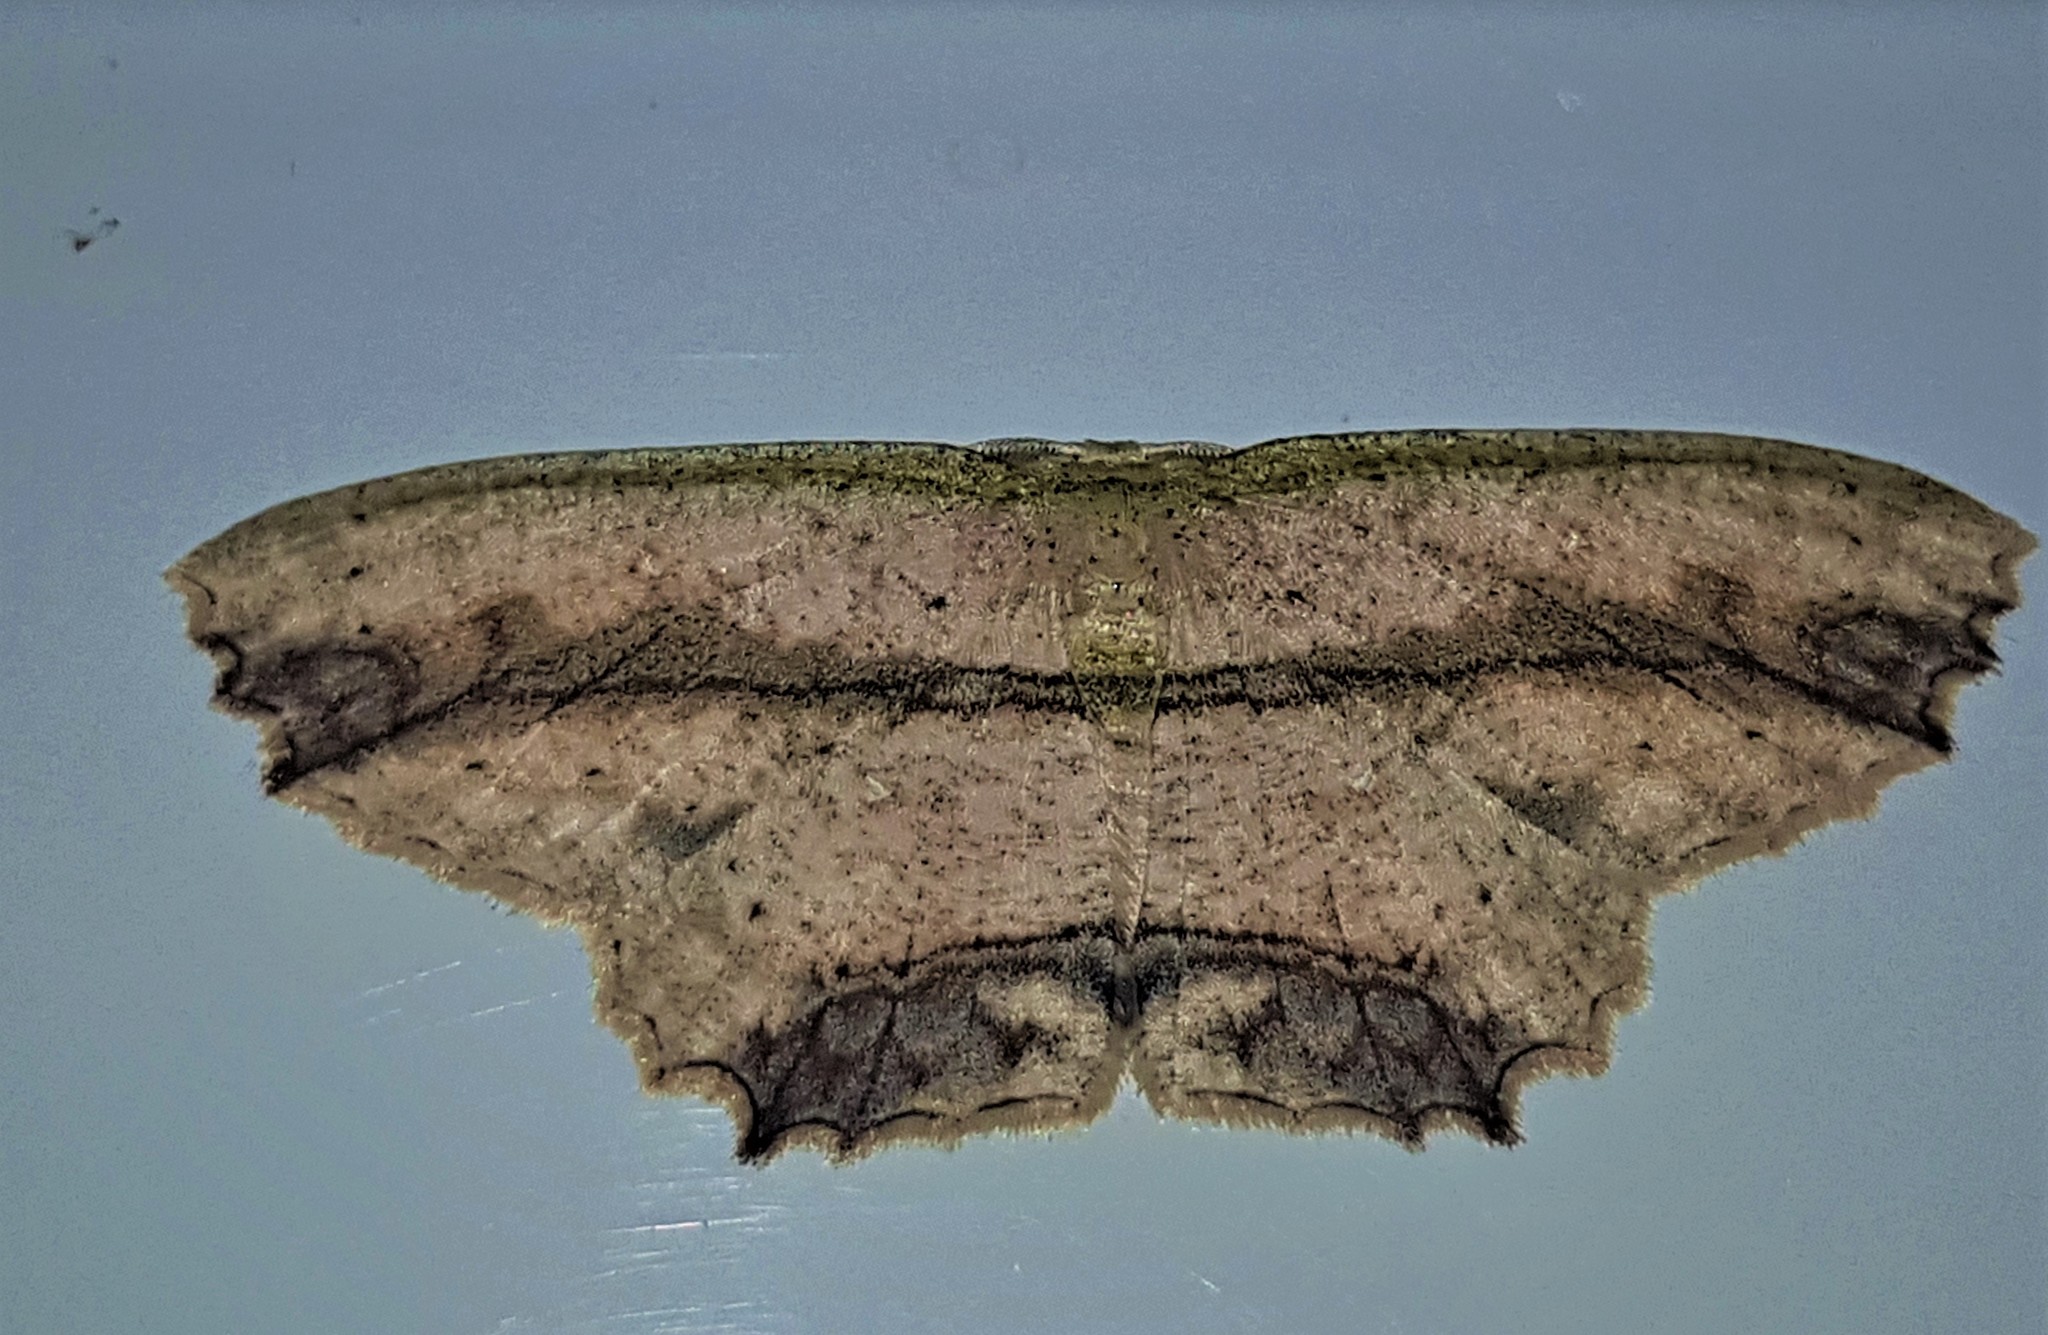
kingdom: Animalia
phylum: Arthropoda
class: Insecta
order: Lepidoptera
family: Geometridae
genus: Cyclophora
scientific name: Cyclophora melitia
